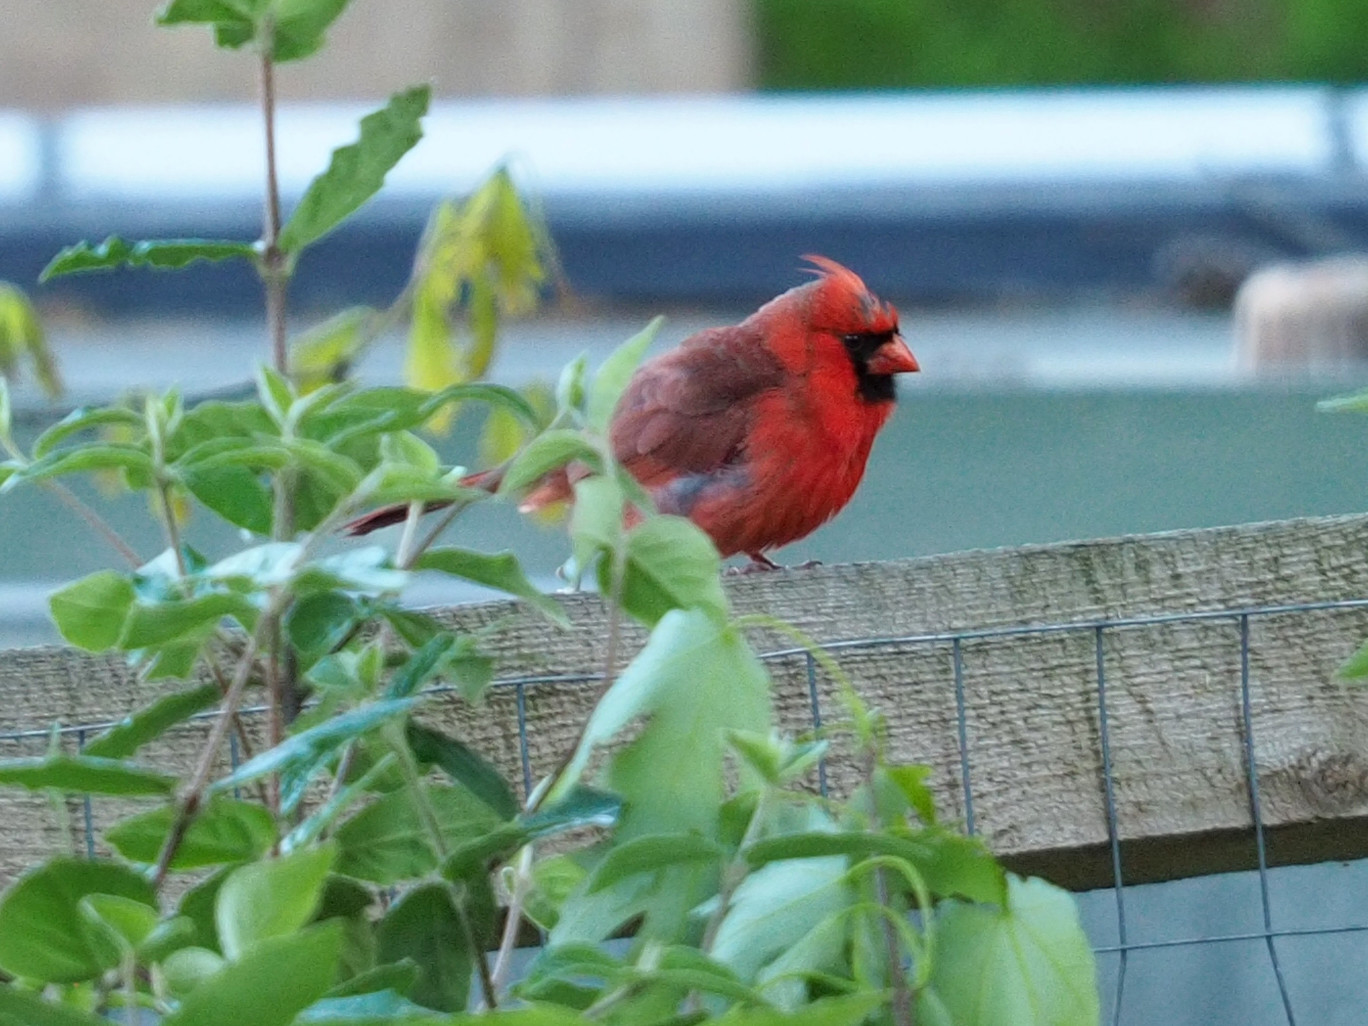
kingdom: Animalia
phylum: Chordata
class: Aves
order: Passeriformes
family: Cardinalidae
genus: Cardinalis
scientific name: Cardinalis cardinalis
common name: Northern cardinal
